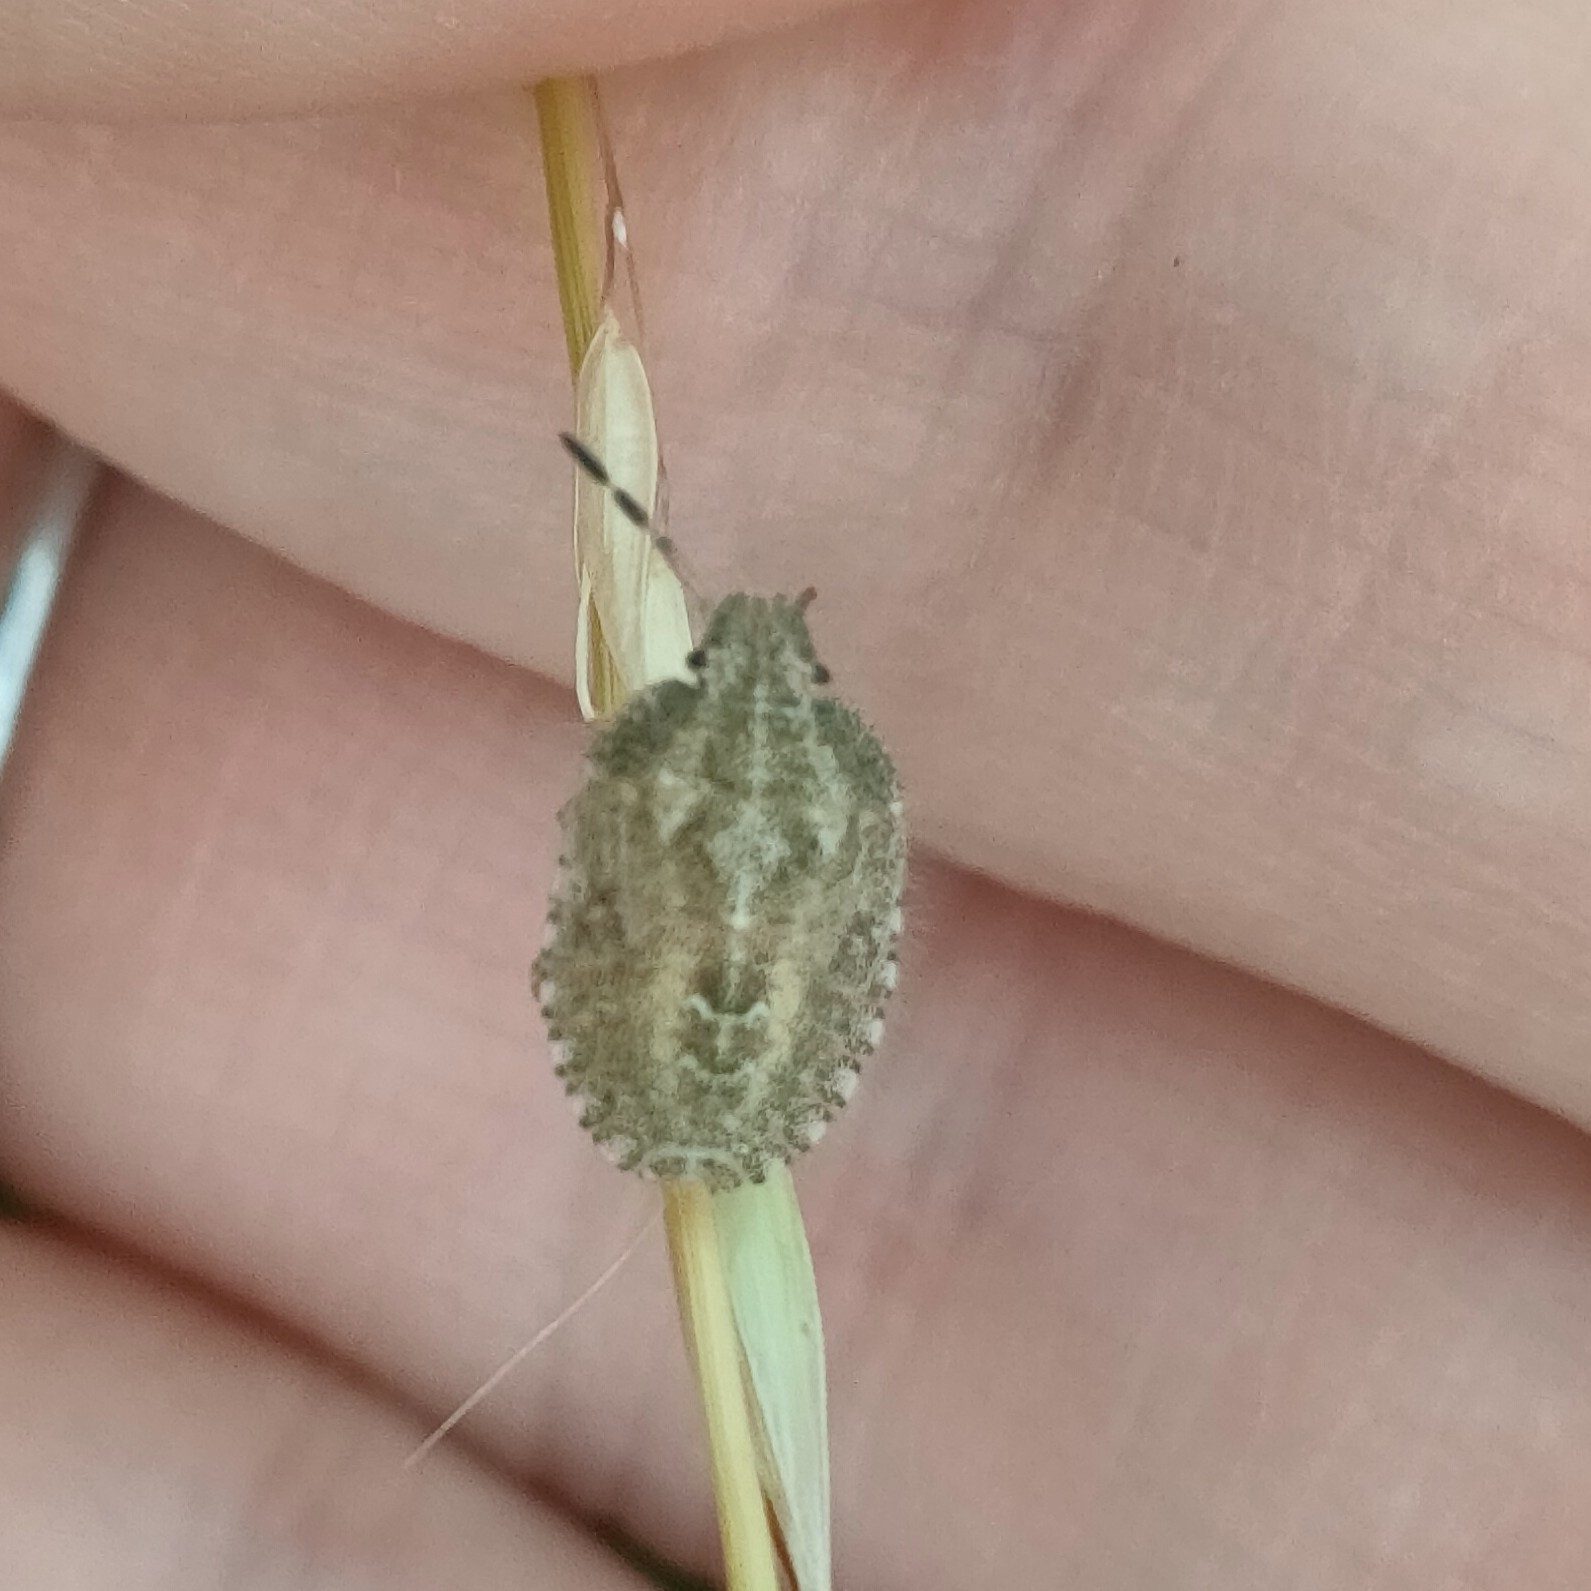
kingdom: Animalia
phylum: Arthropoda
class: Insecta
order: Hemiptera
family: Pentatomidae
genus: Dolycoris
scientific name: Dolycoris baccarum
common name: Sloe bug
